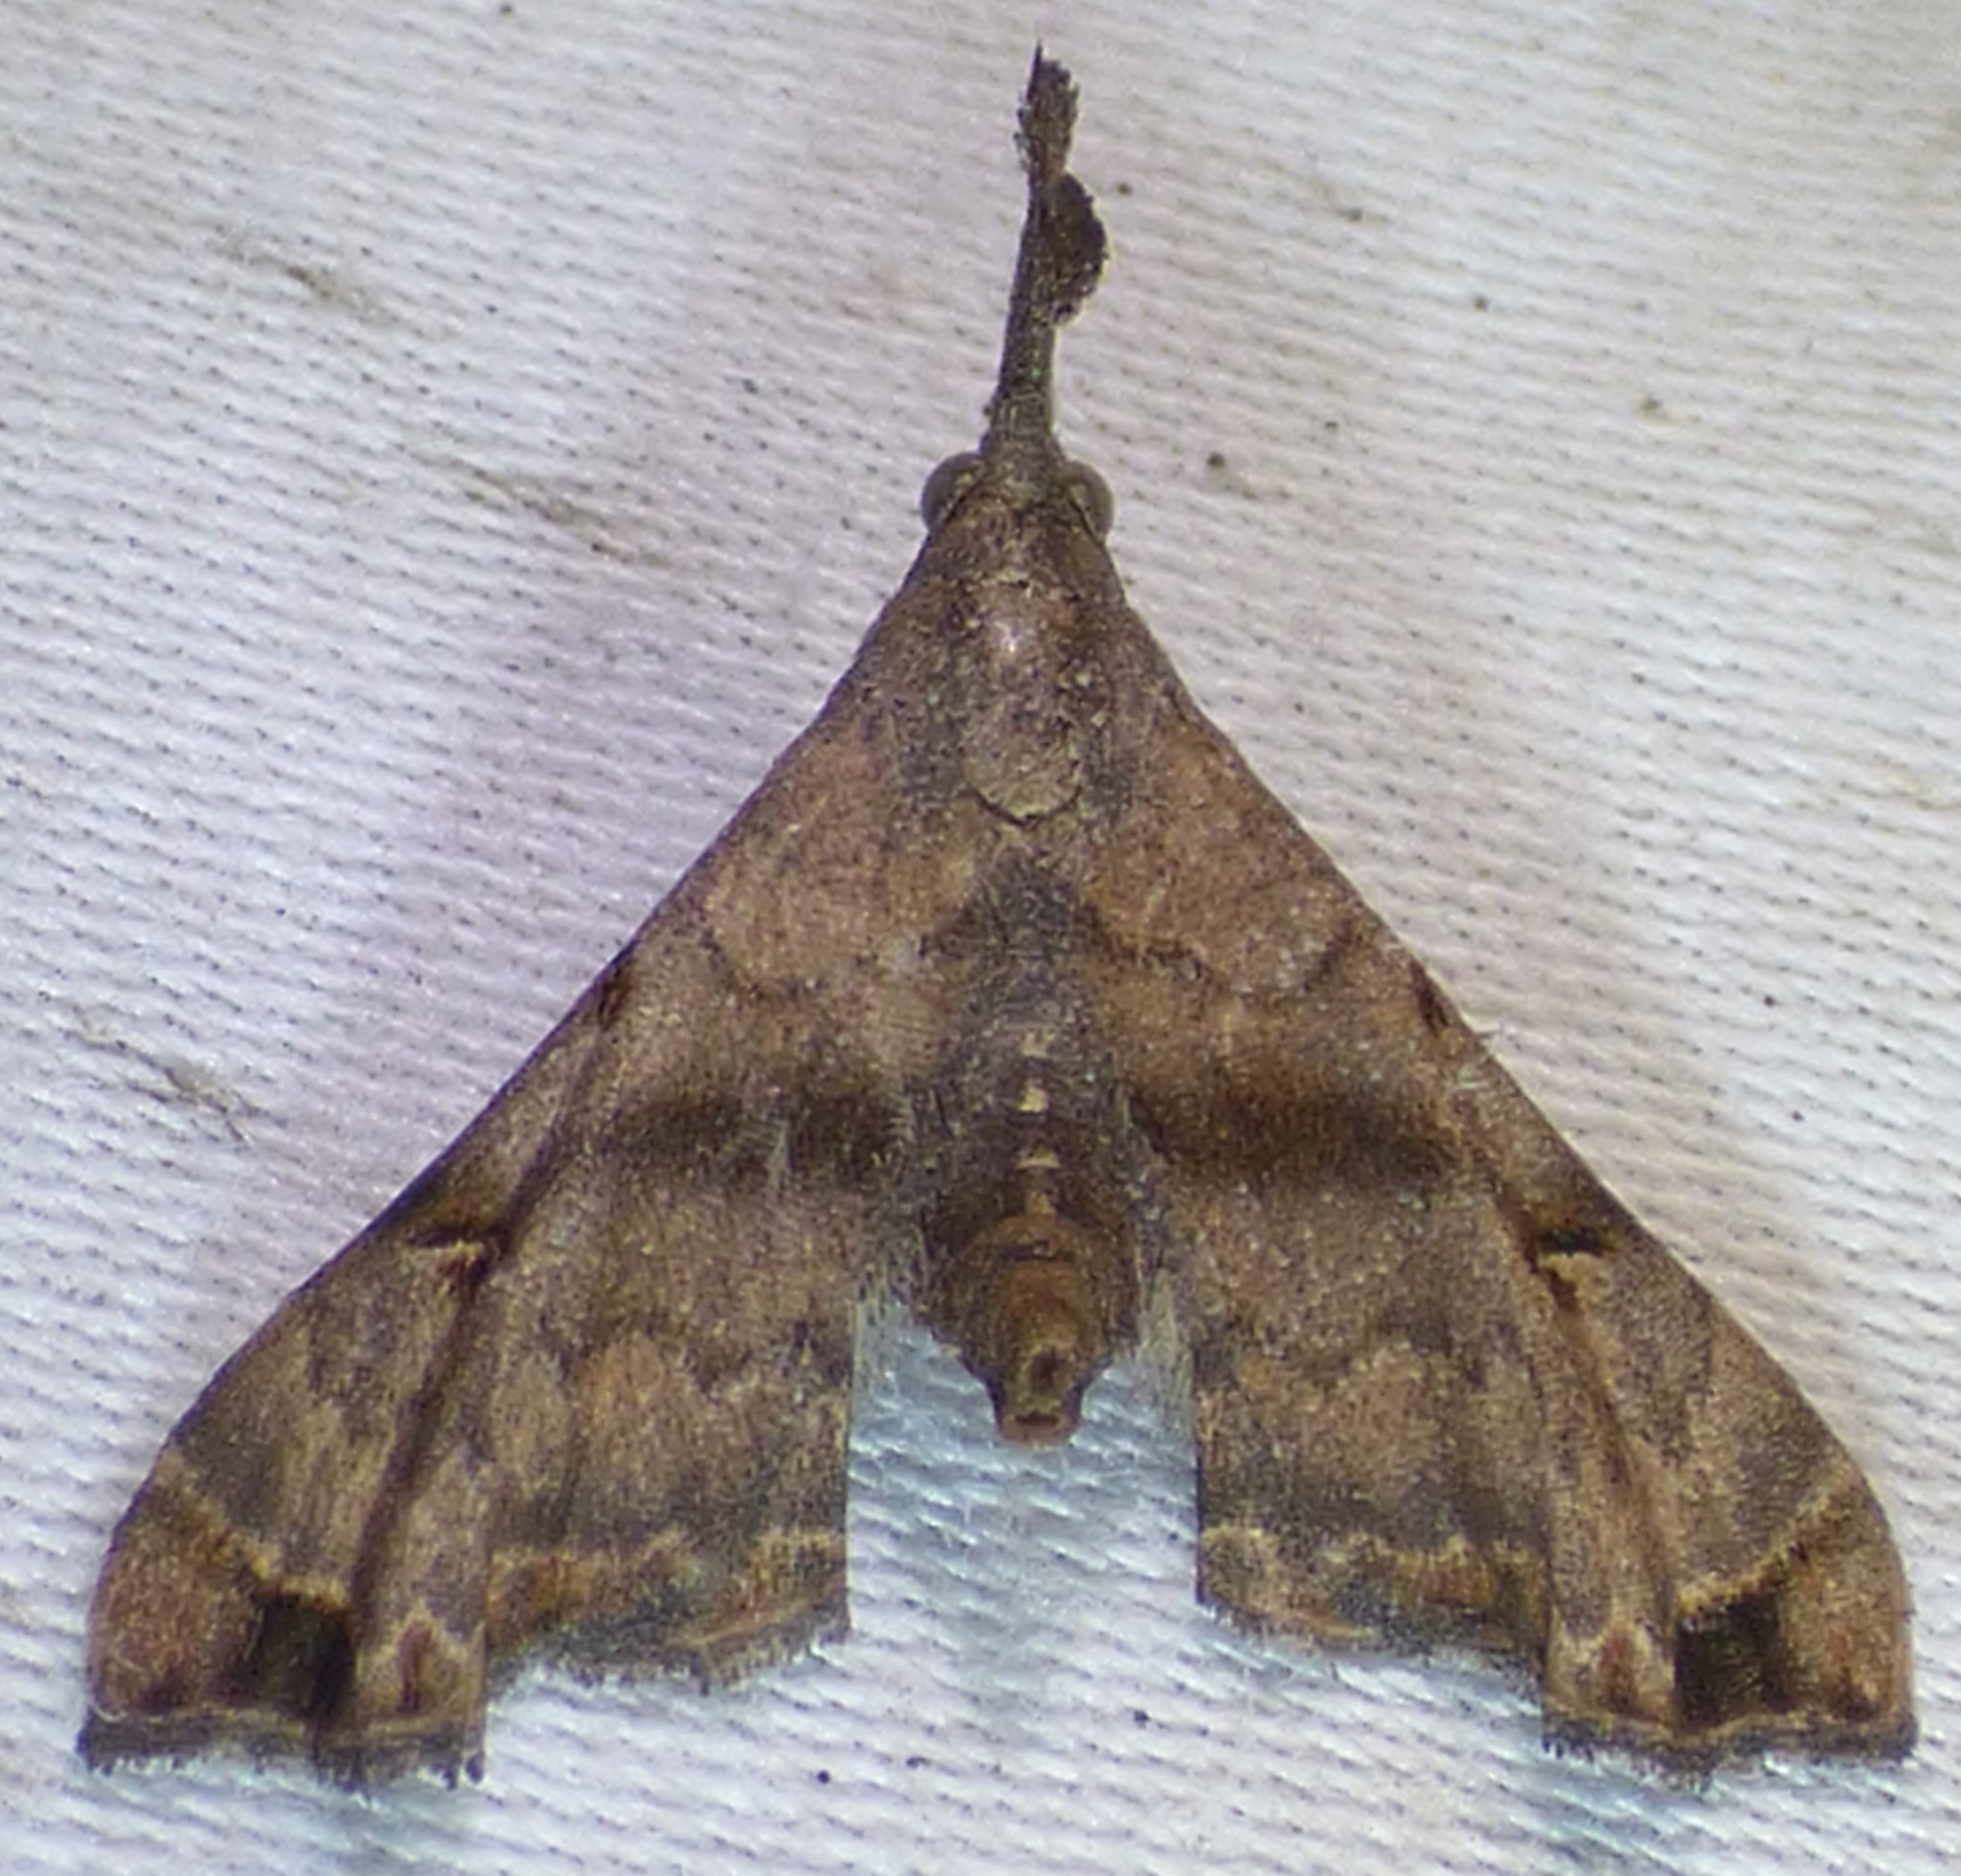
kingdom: Animalia
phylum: Arthropoda
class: Insecta
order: Lepidoptera
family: Erebidae
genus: Palthis
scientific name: Palthis asopialis
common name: Faint-spotted palthis moth
